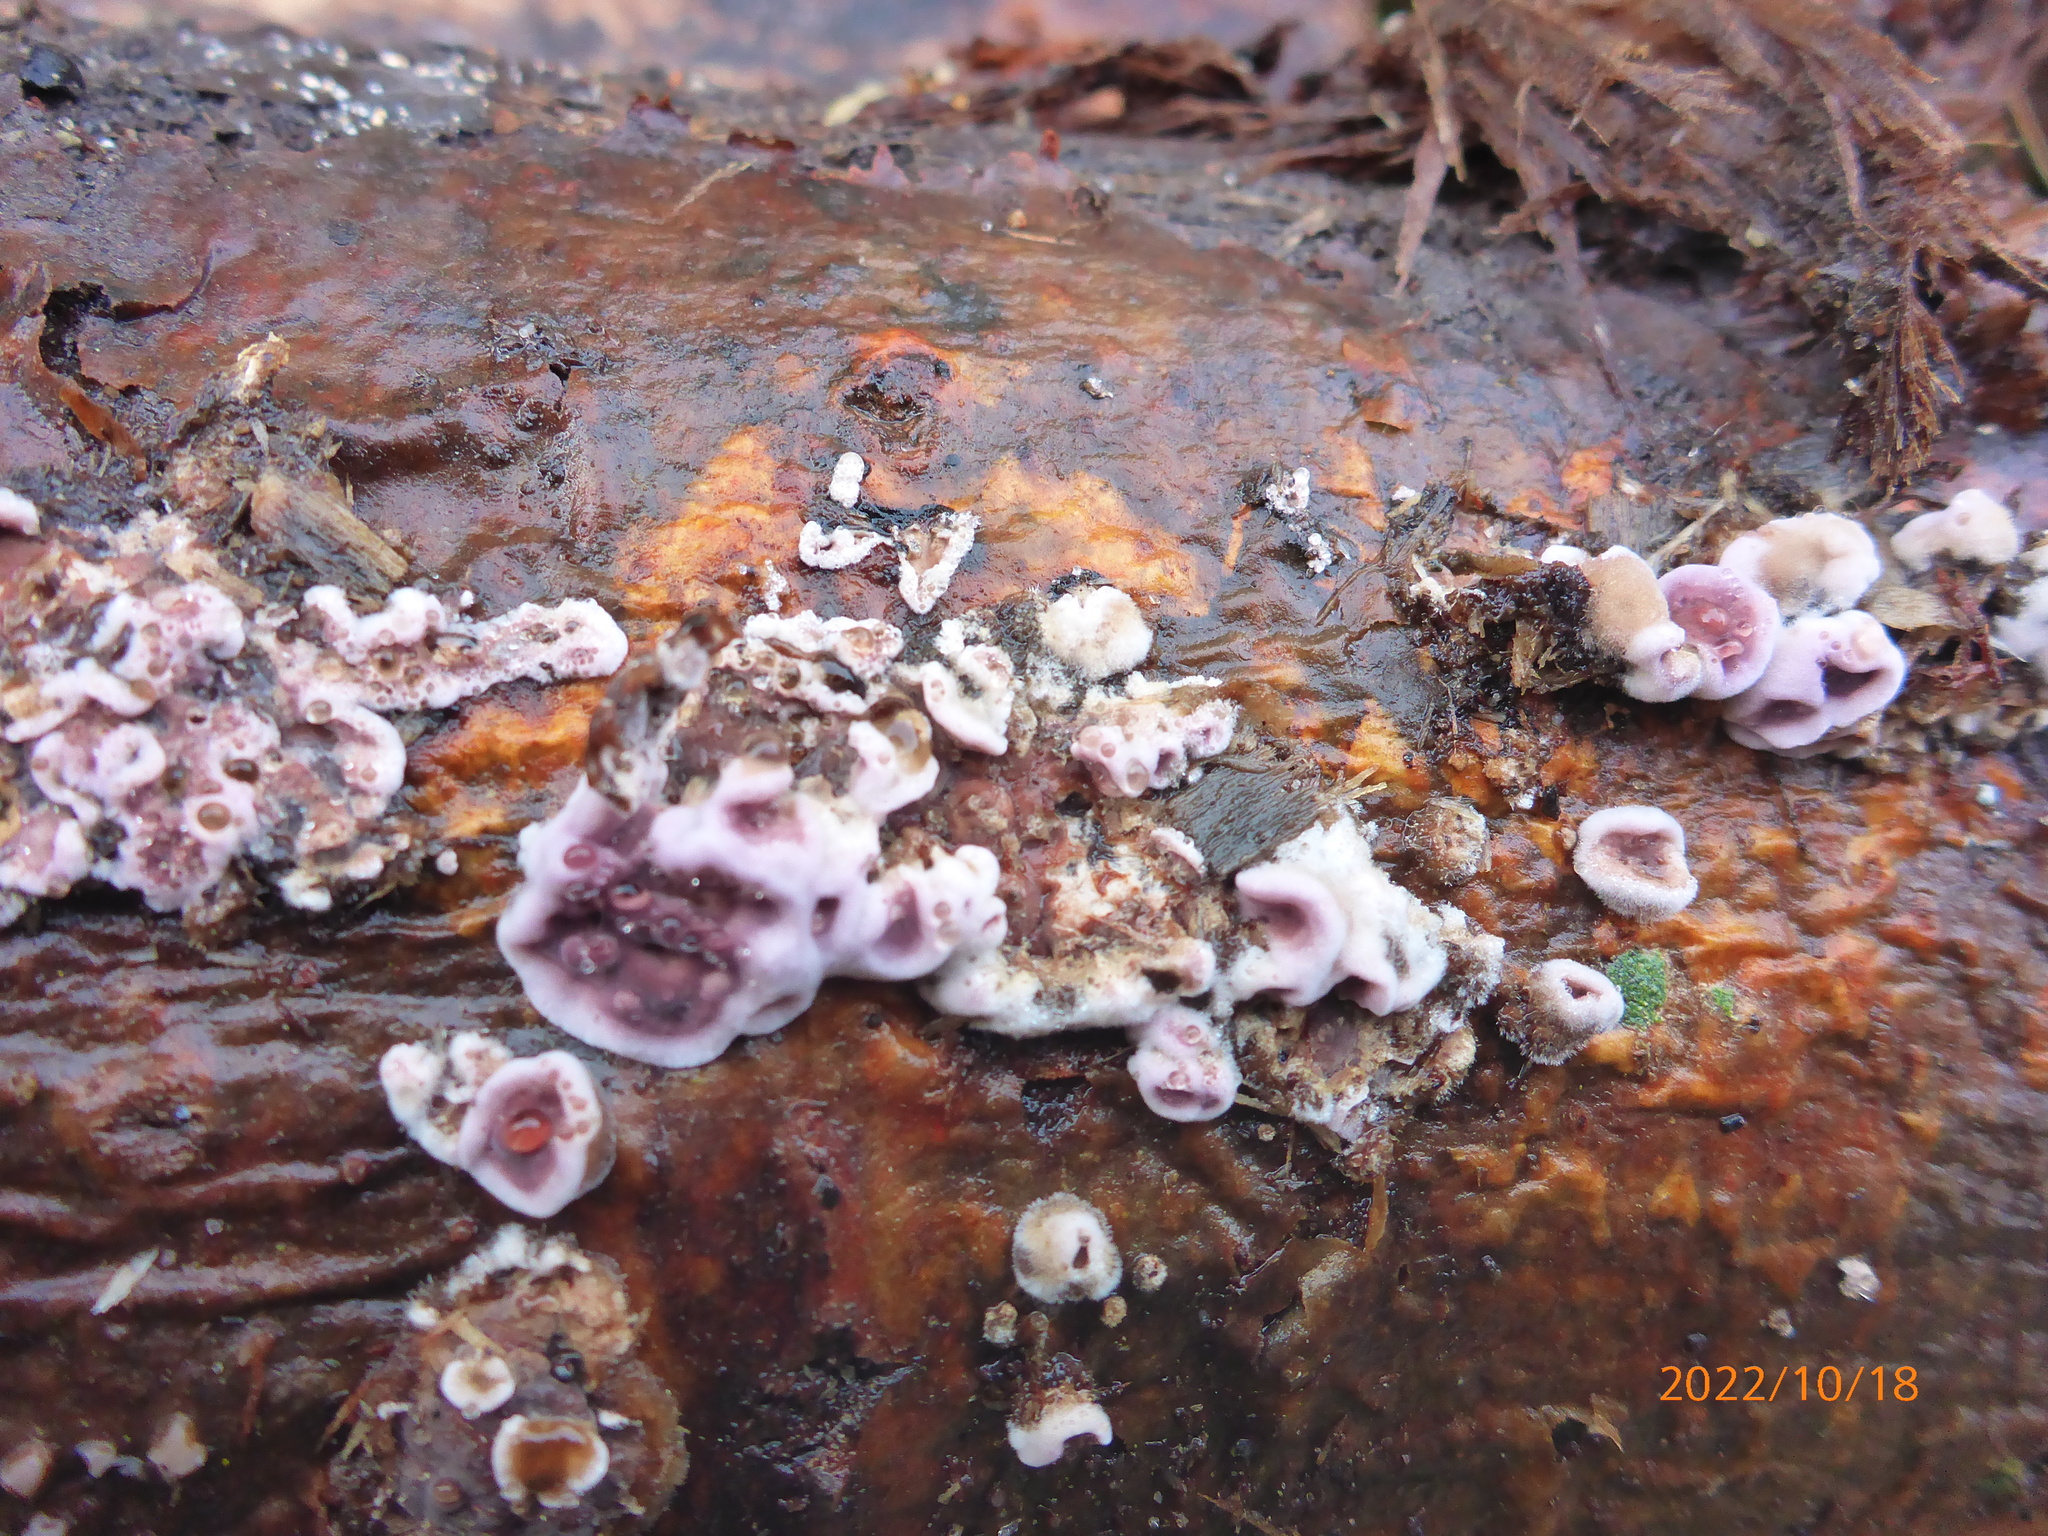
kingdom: Fungi
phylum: Basidiomycota
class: Agaricomycetes
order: Agaricales
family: Cyphellaceae
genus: Chondrostereum
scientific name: Chondrostereum purpureum
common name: Silver leaf disease
